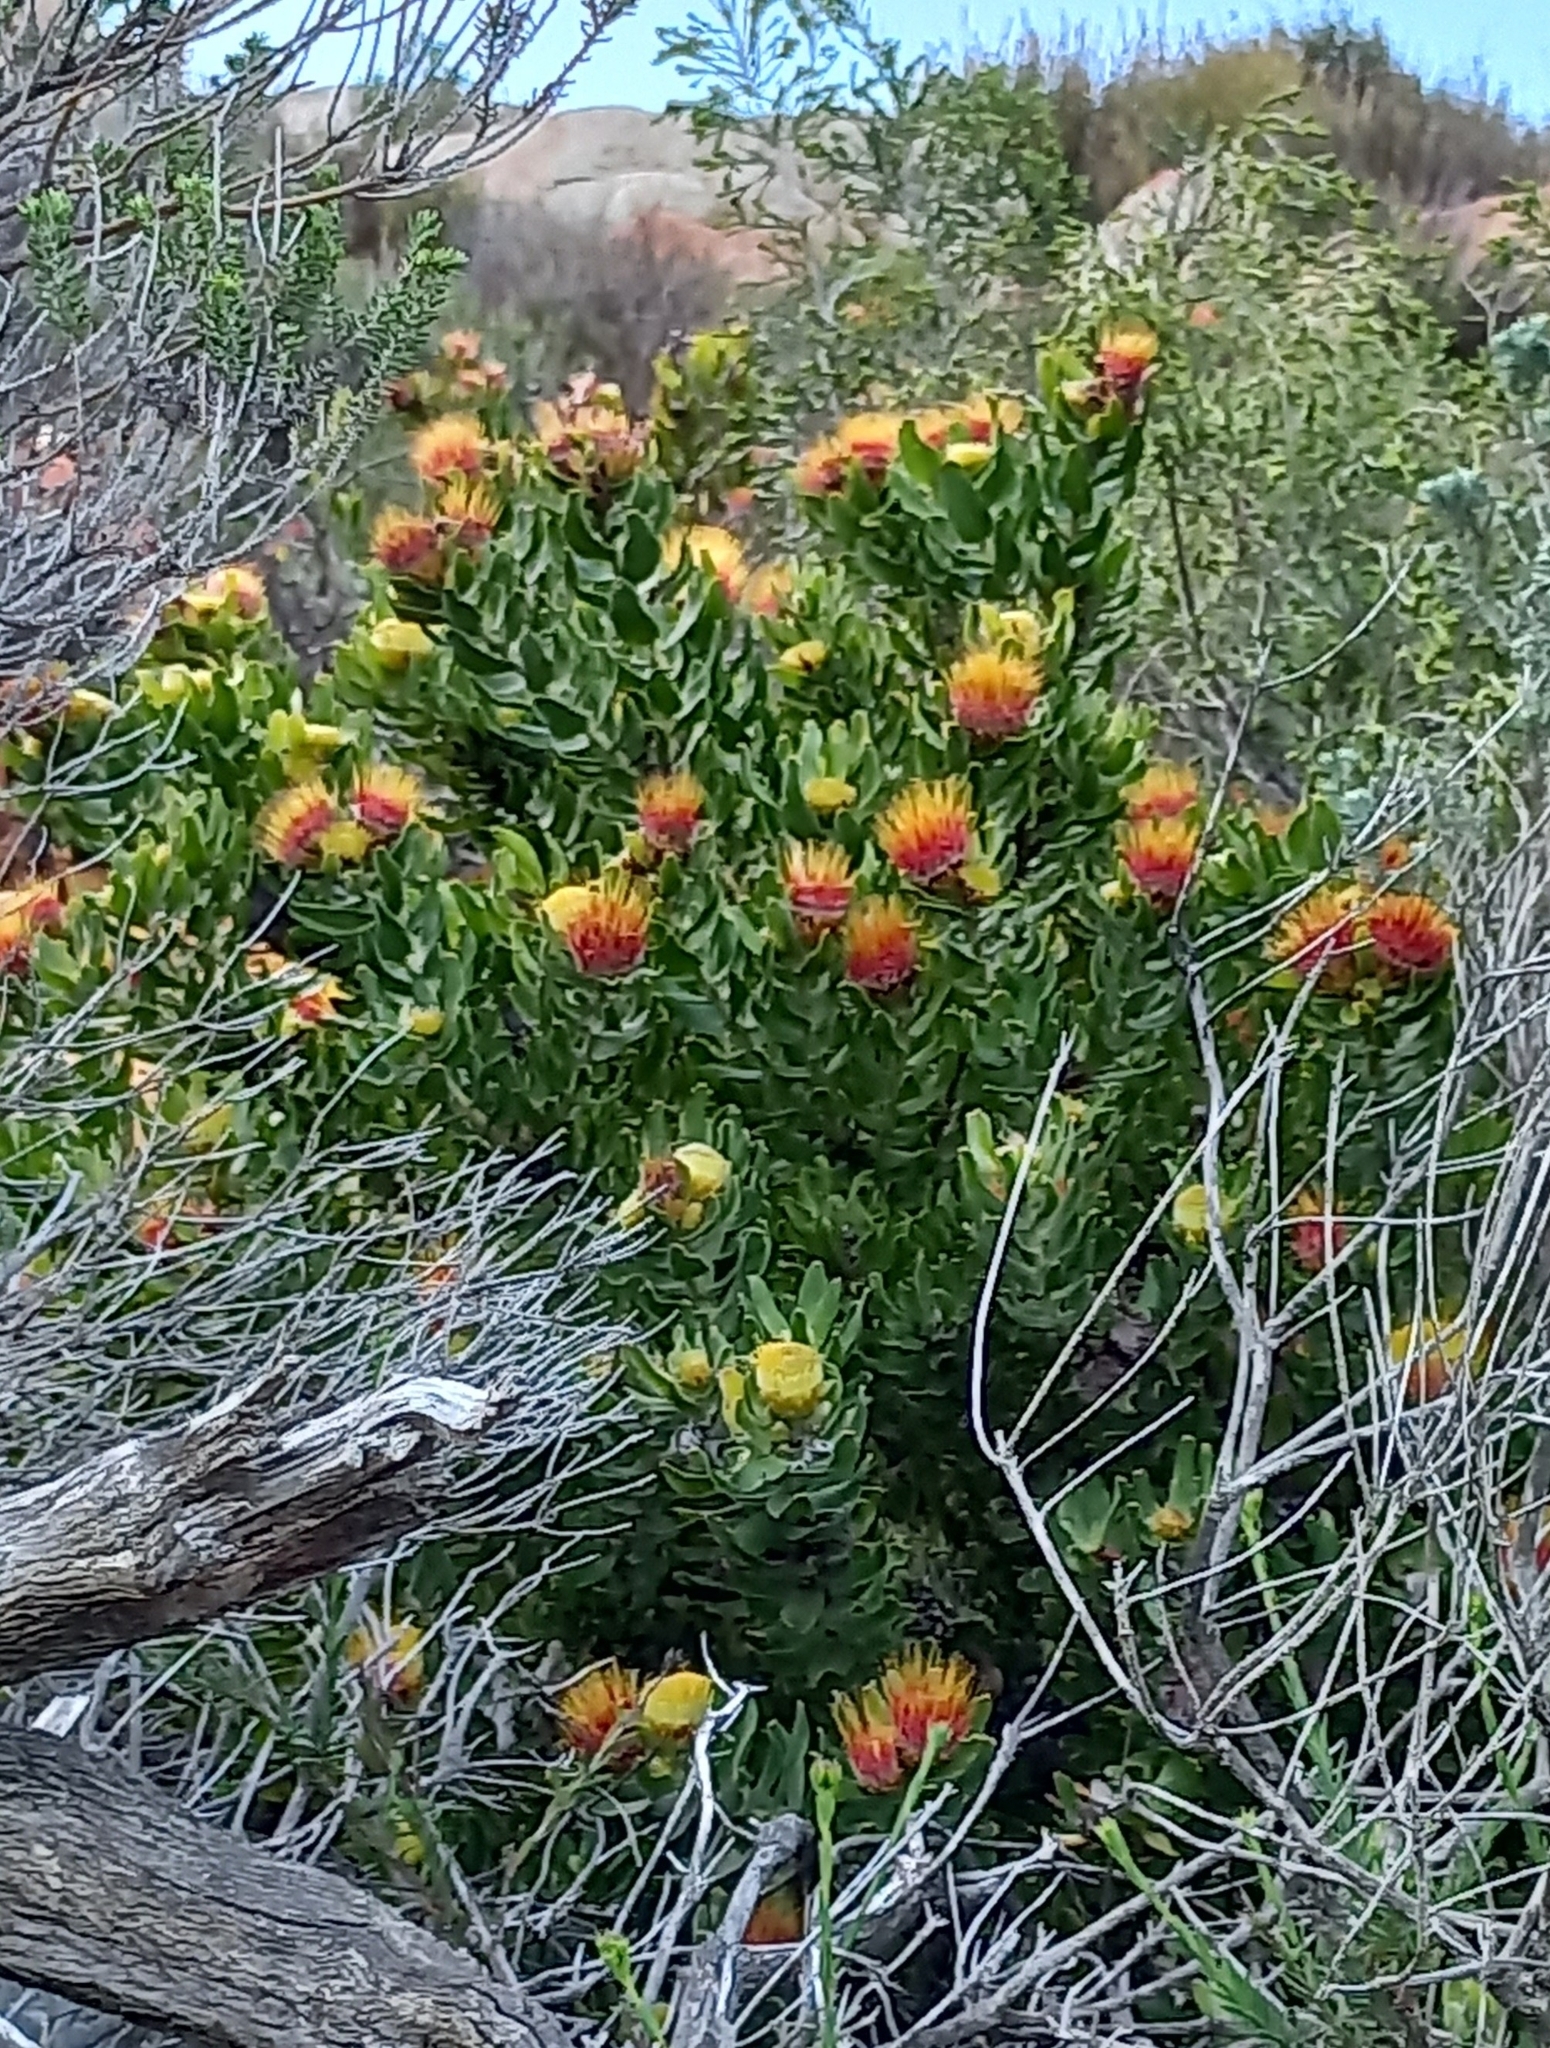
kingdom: Plantae
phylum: Tracheophyta
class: Magnoliopsida
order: Proteales
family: Proteaceae
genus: Leucospermum
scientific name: Leucospermum oleifolium
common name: Matches
